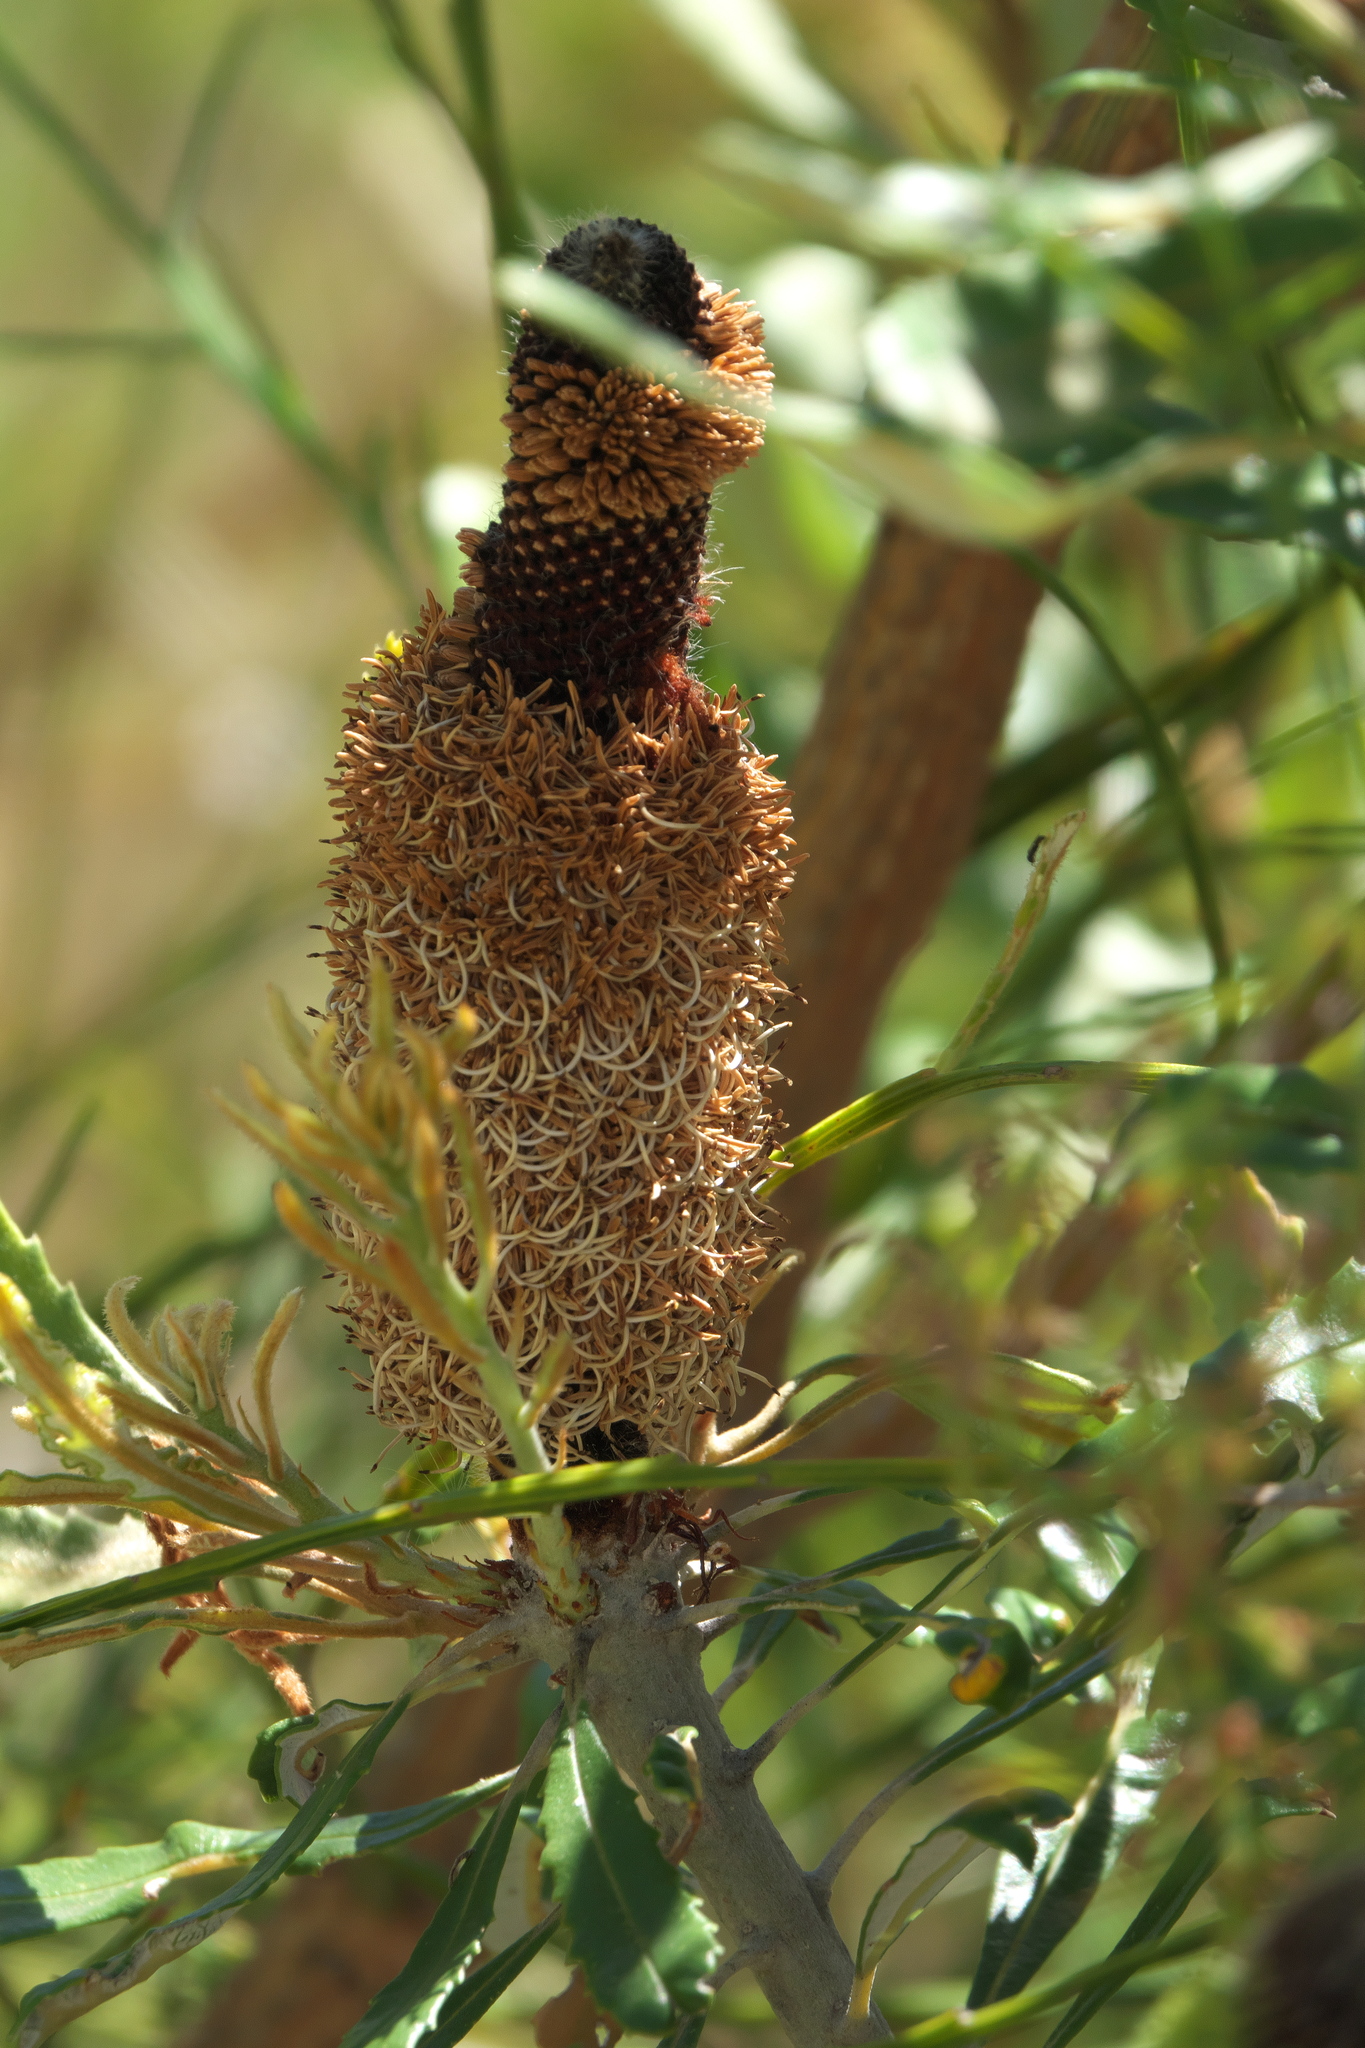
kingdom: Plantae
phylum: Tracheophyta
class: Magnoliopsida
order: Proteales
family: Proteaceae
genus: Banksia
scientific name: Banksia attenuata
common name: Coast banksia
